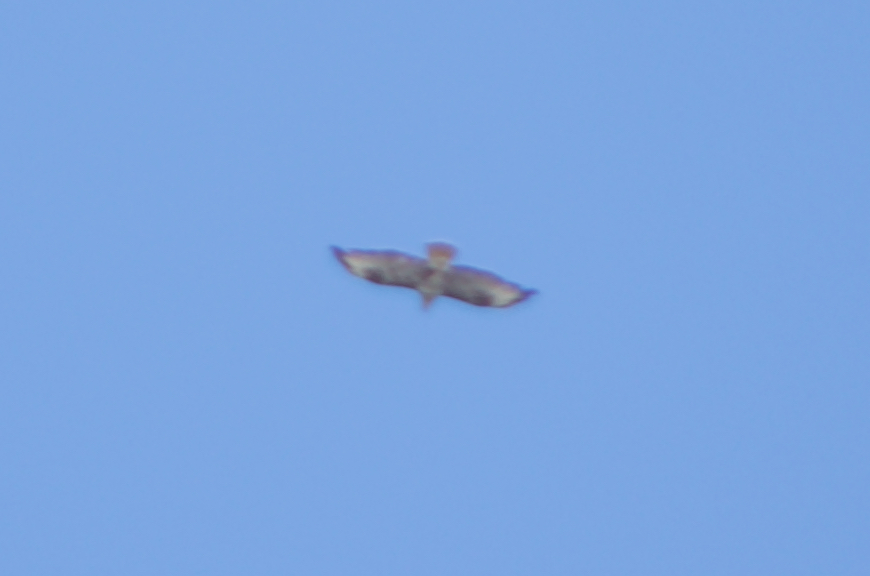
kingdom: Animalia
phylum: Chordata
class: Aves
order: Accipitriformes
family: Accipitridae
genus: Buteo
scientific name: Buteo buteo
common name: Common buzzard
